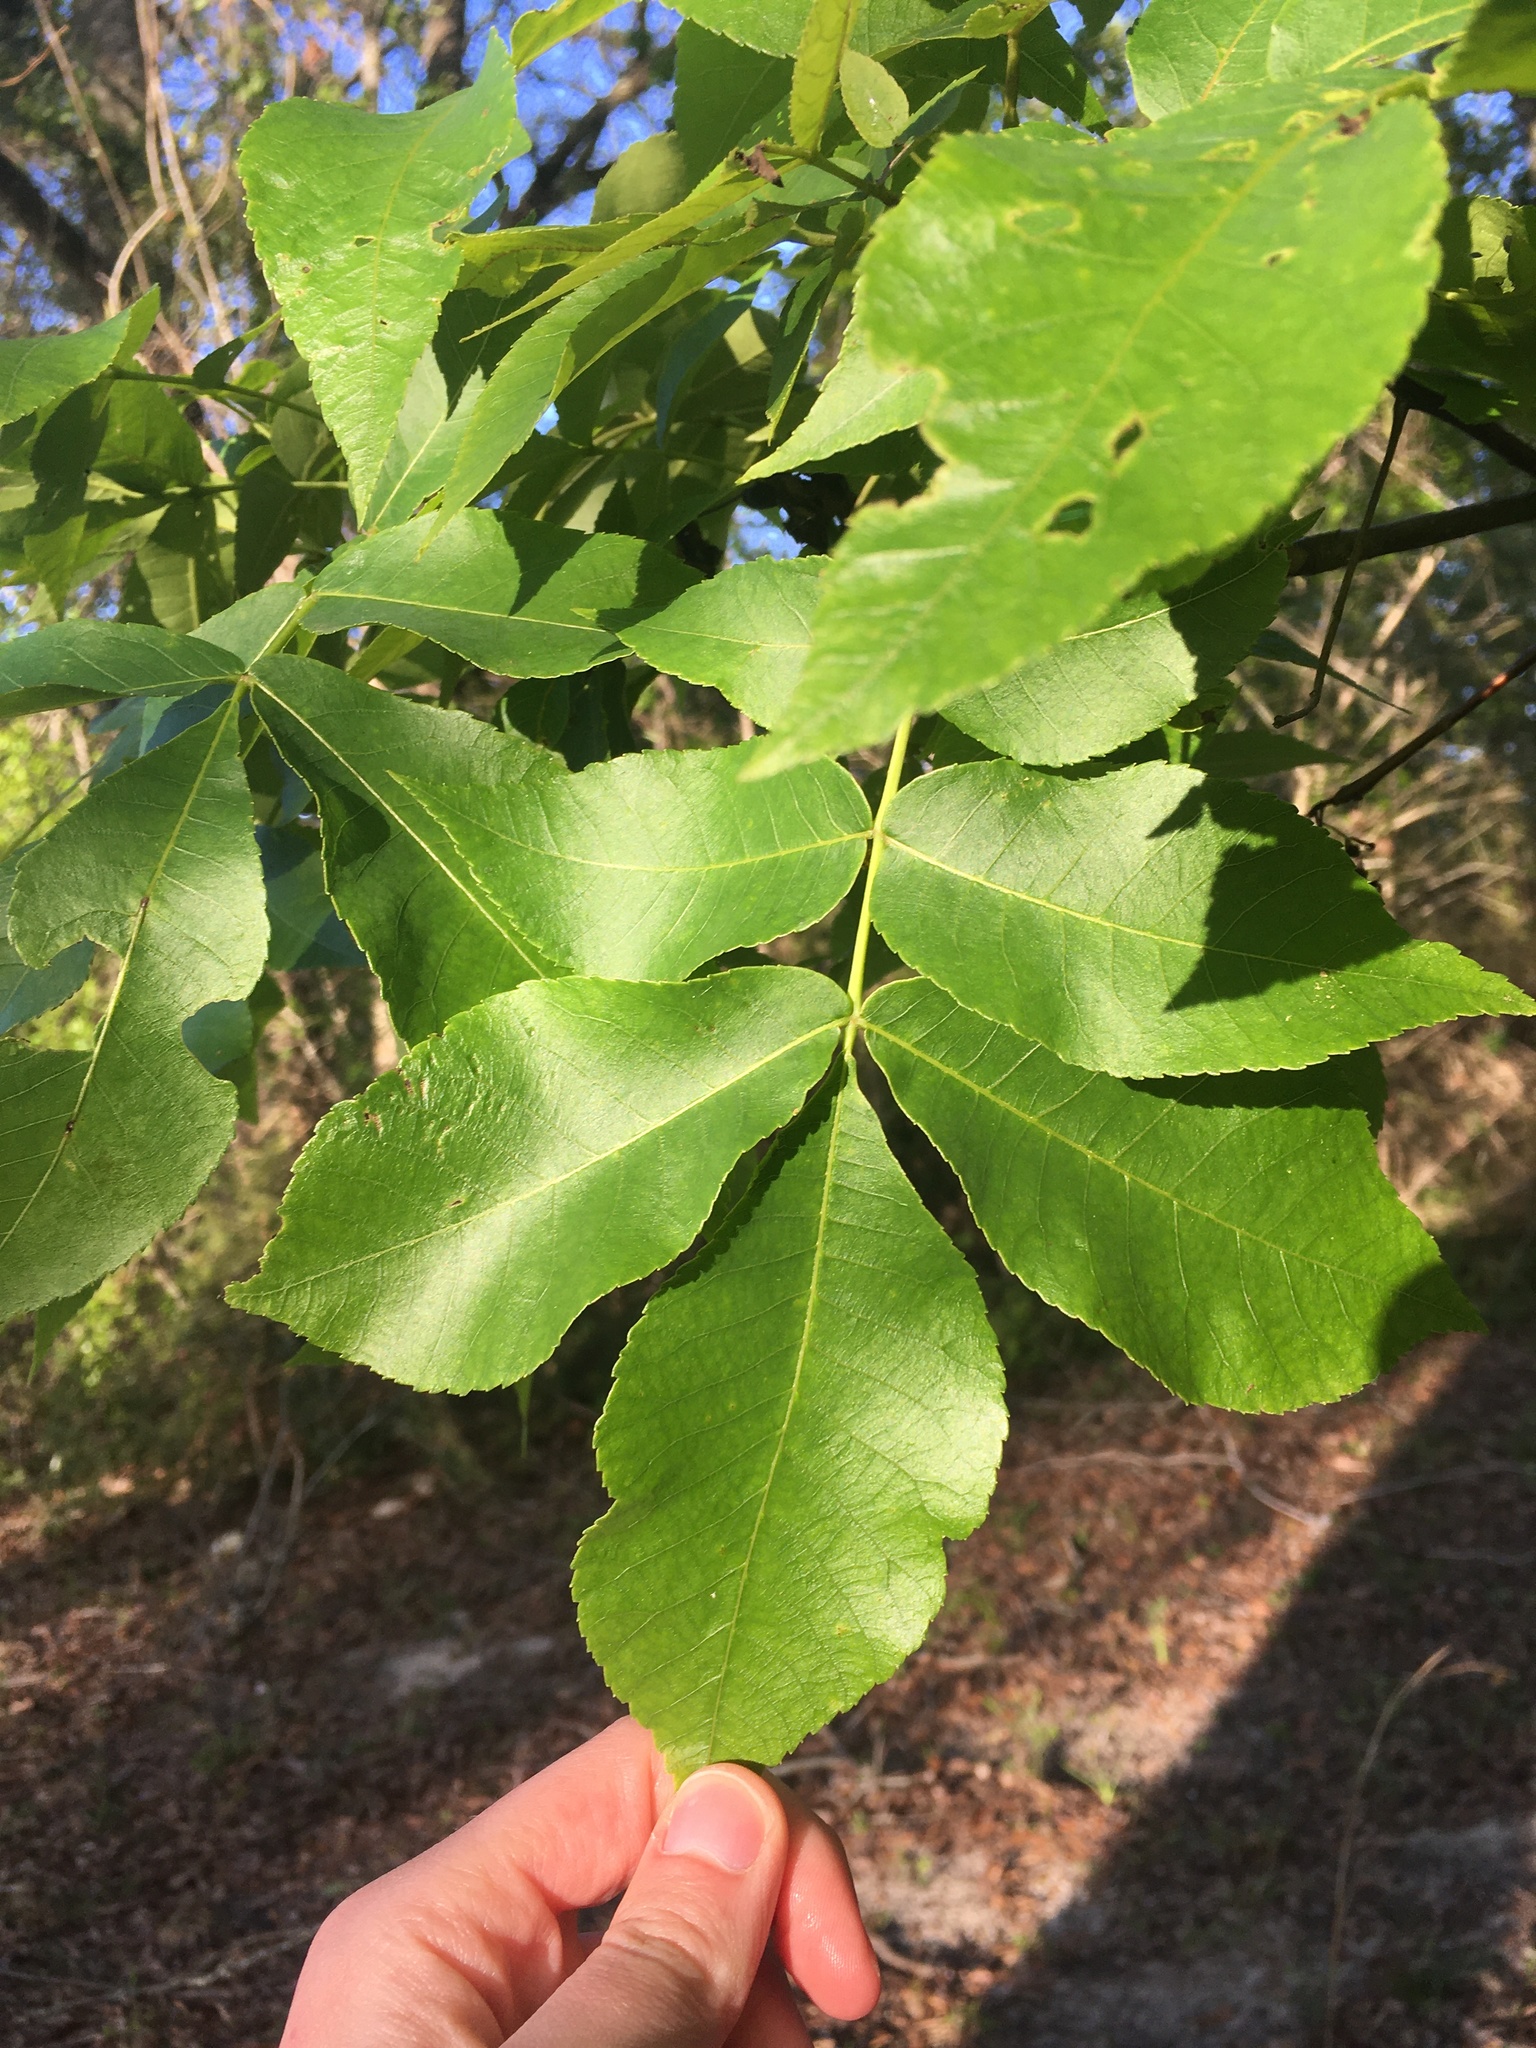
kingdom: Plantae
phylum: Tracheophyta
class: Magnoliopsida
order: Fagales
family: Juglandaceae
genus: Carya
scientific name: Carya alba
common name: Mockernut hickory
